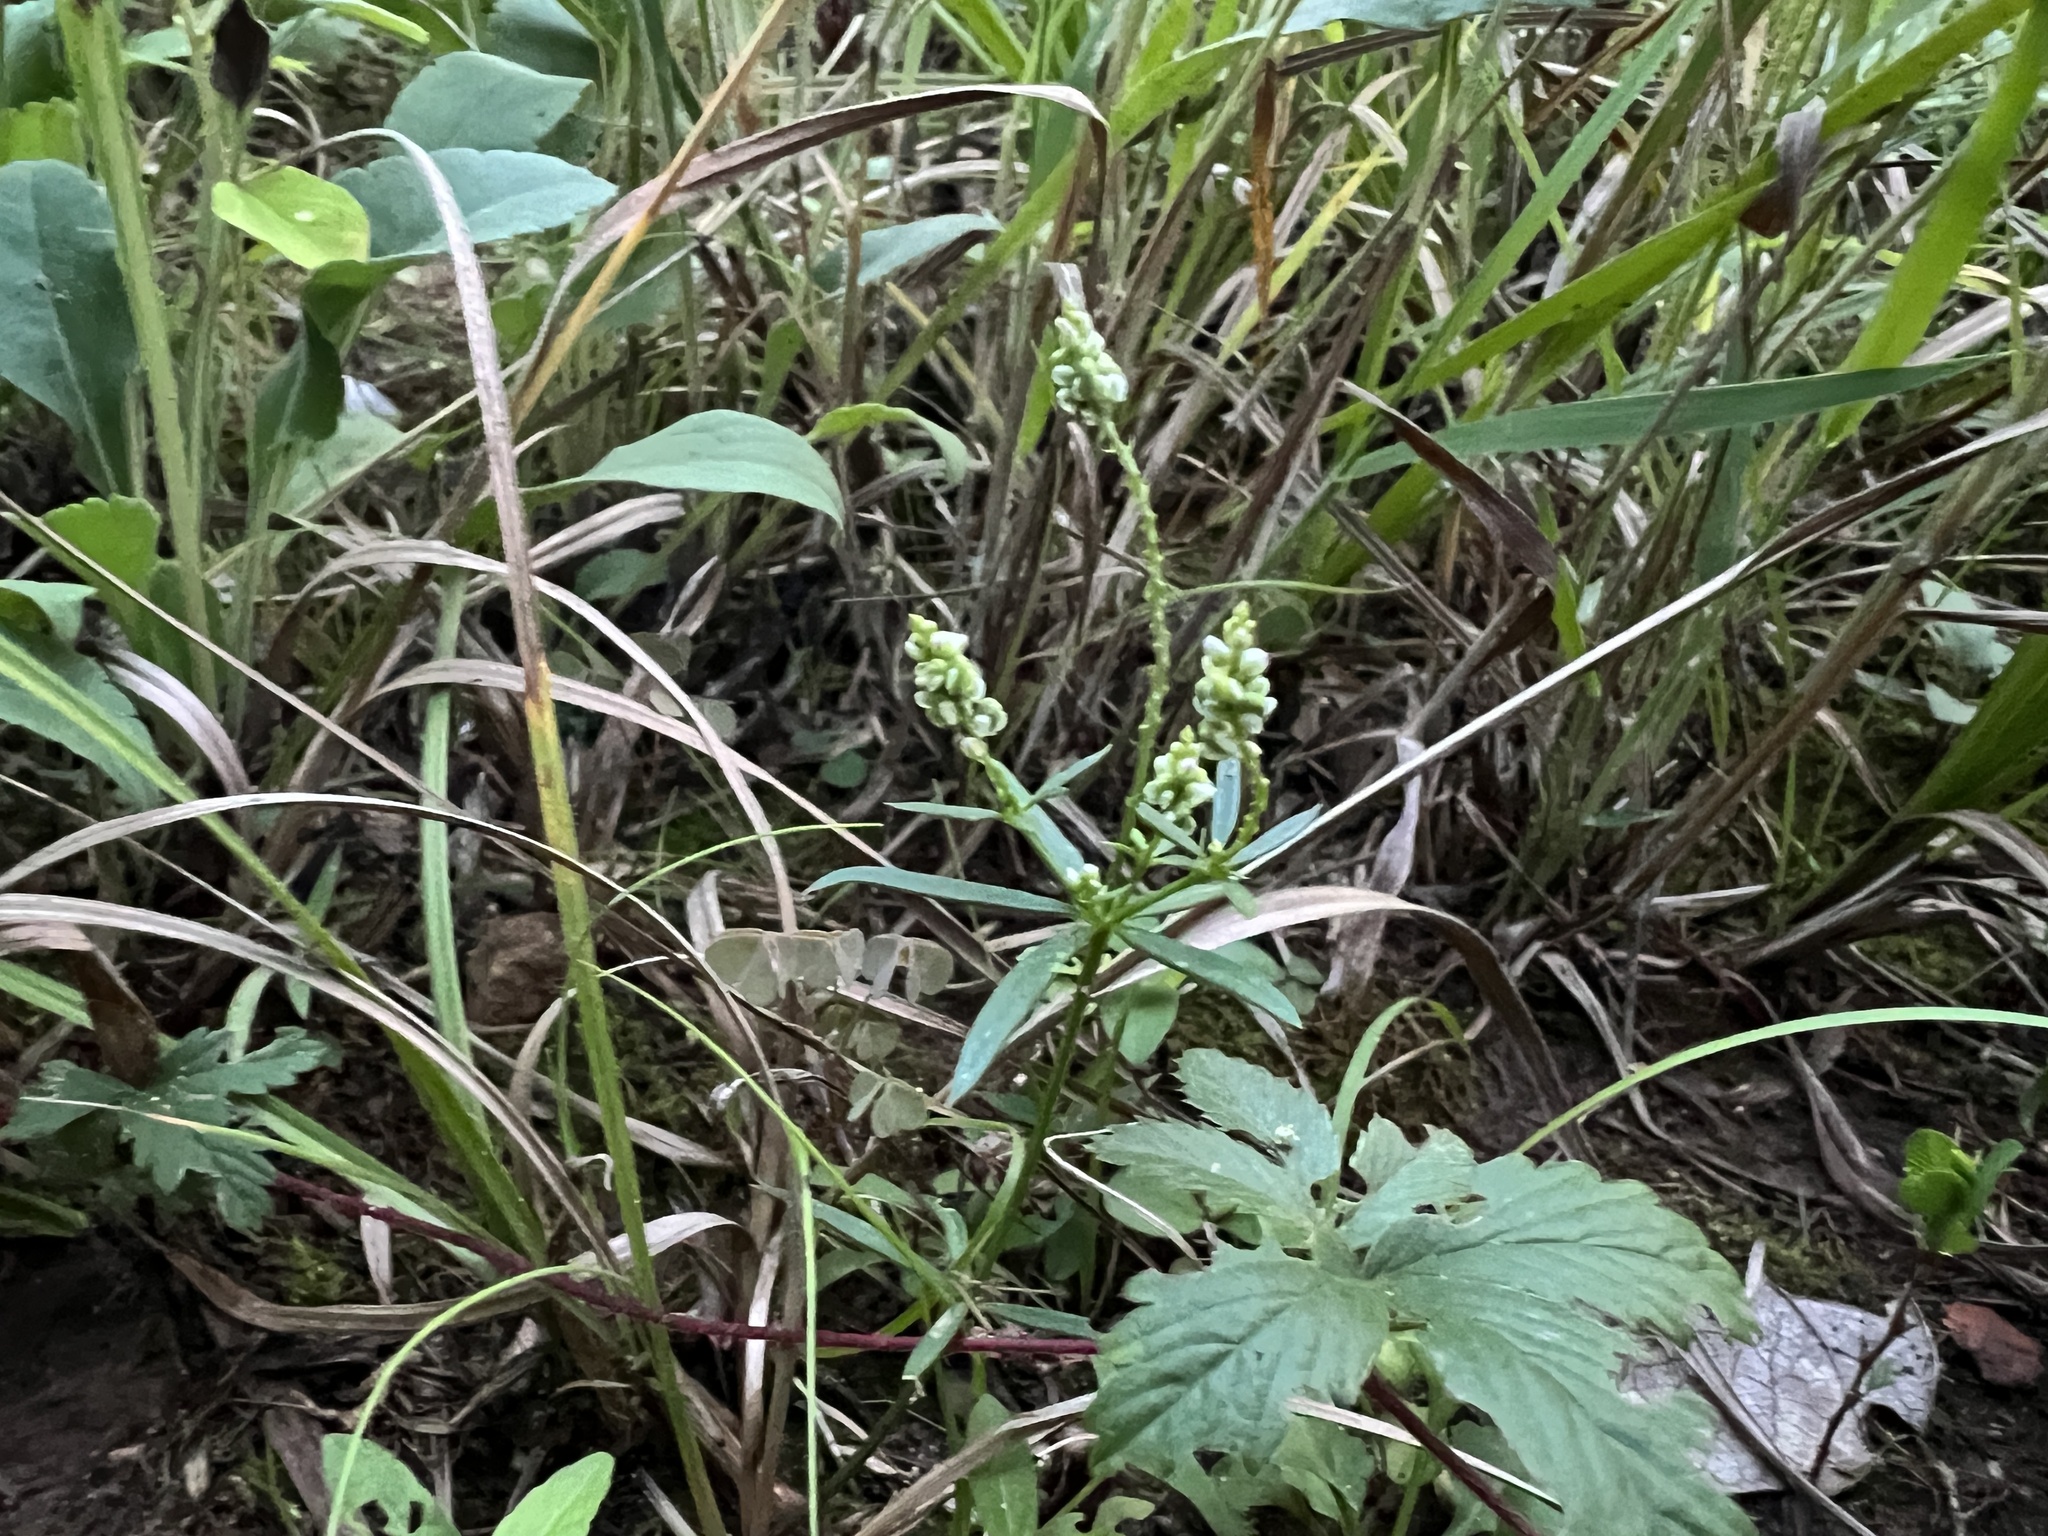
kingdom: Plantae
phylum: Tracheophyta
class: Magnoliopsida
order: Fabales
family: Polygalaceae
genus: Polygala
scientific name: Polygala verticillata
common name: Whorl milkwort
